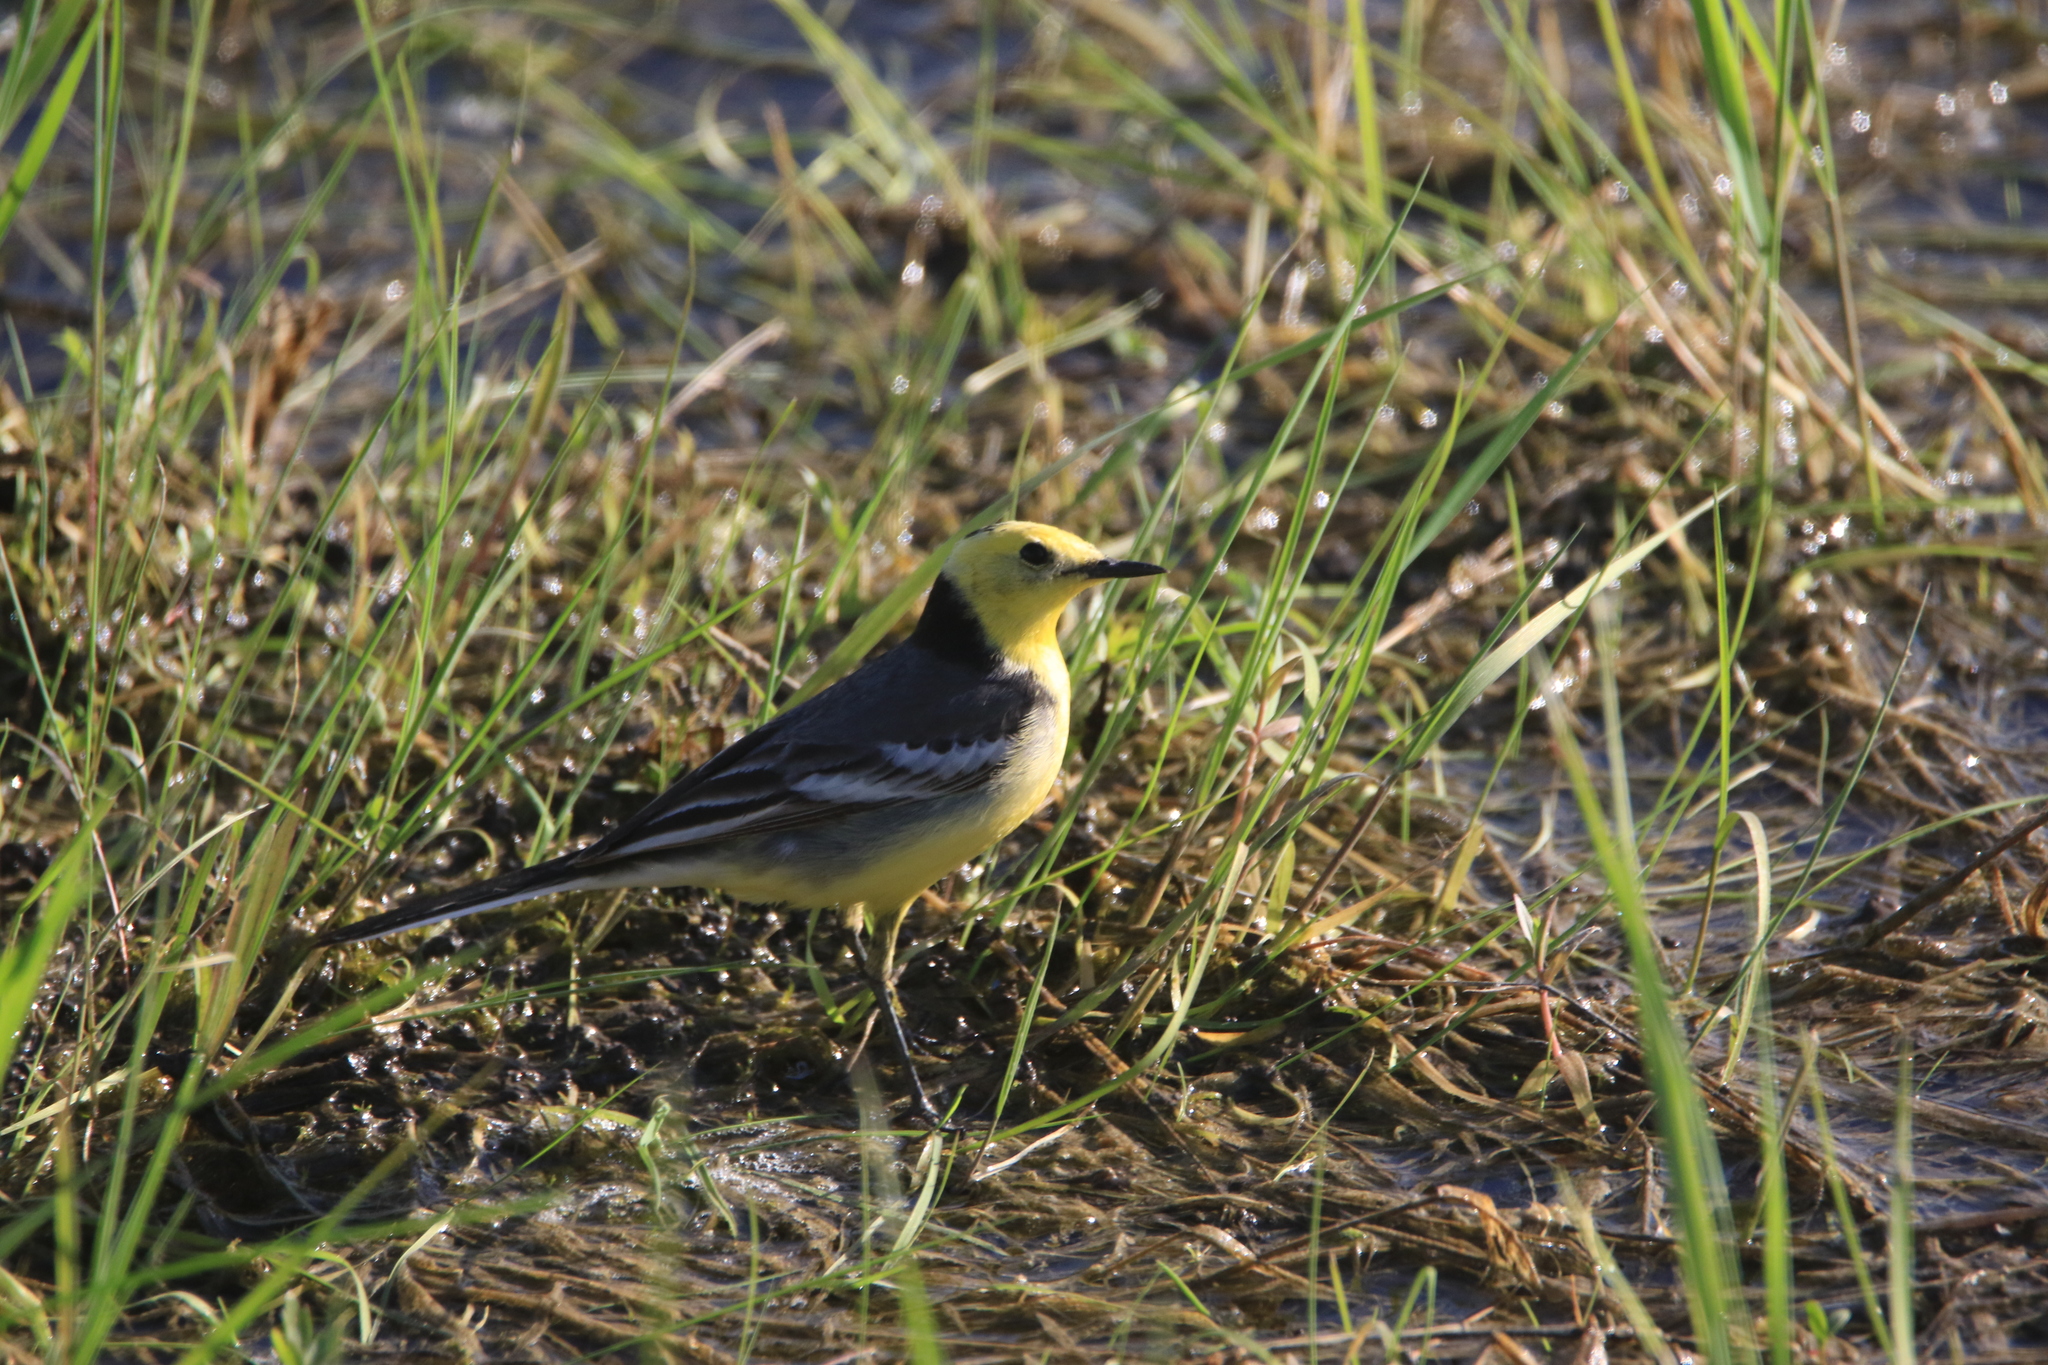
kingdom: Animalia
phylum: Chordata
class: Aves
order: Passeriformes
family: Motacillidae
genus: Motacilla
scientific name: Motacilla citreola
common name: Citrine wagtail
